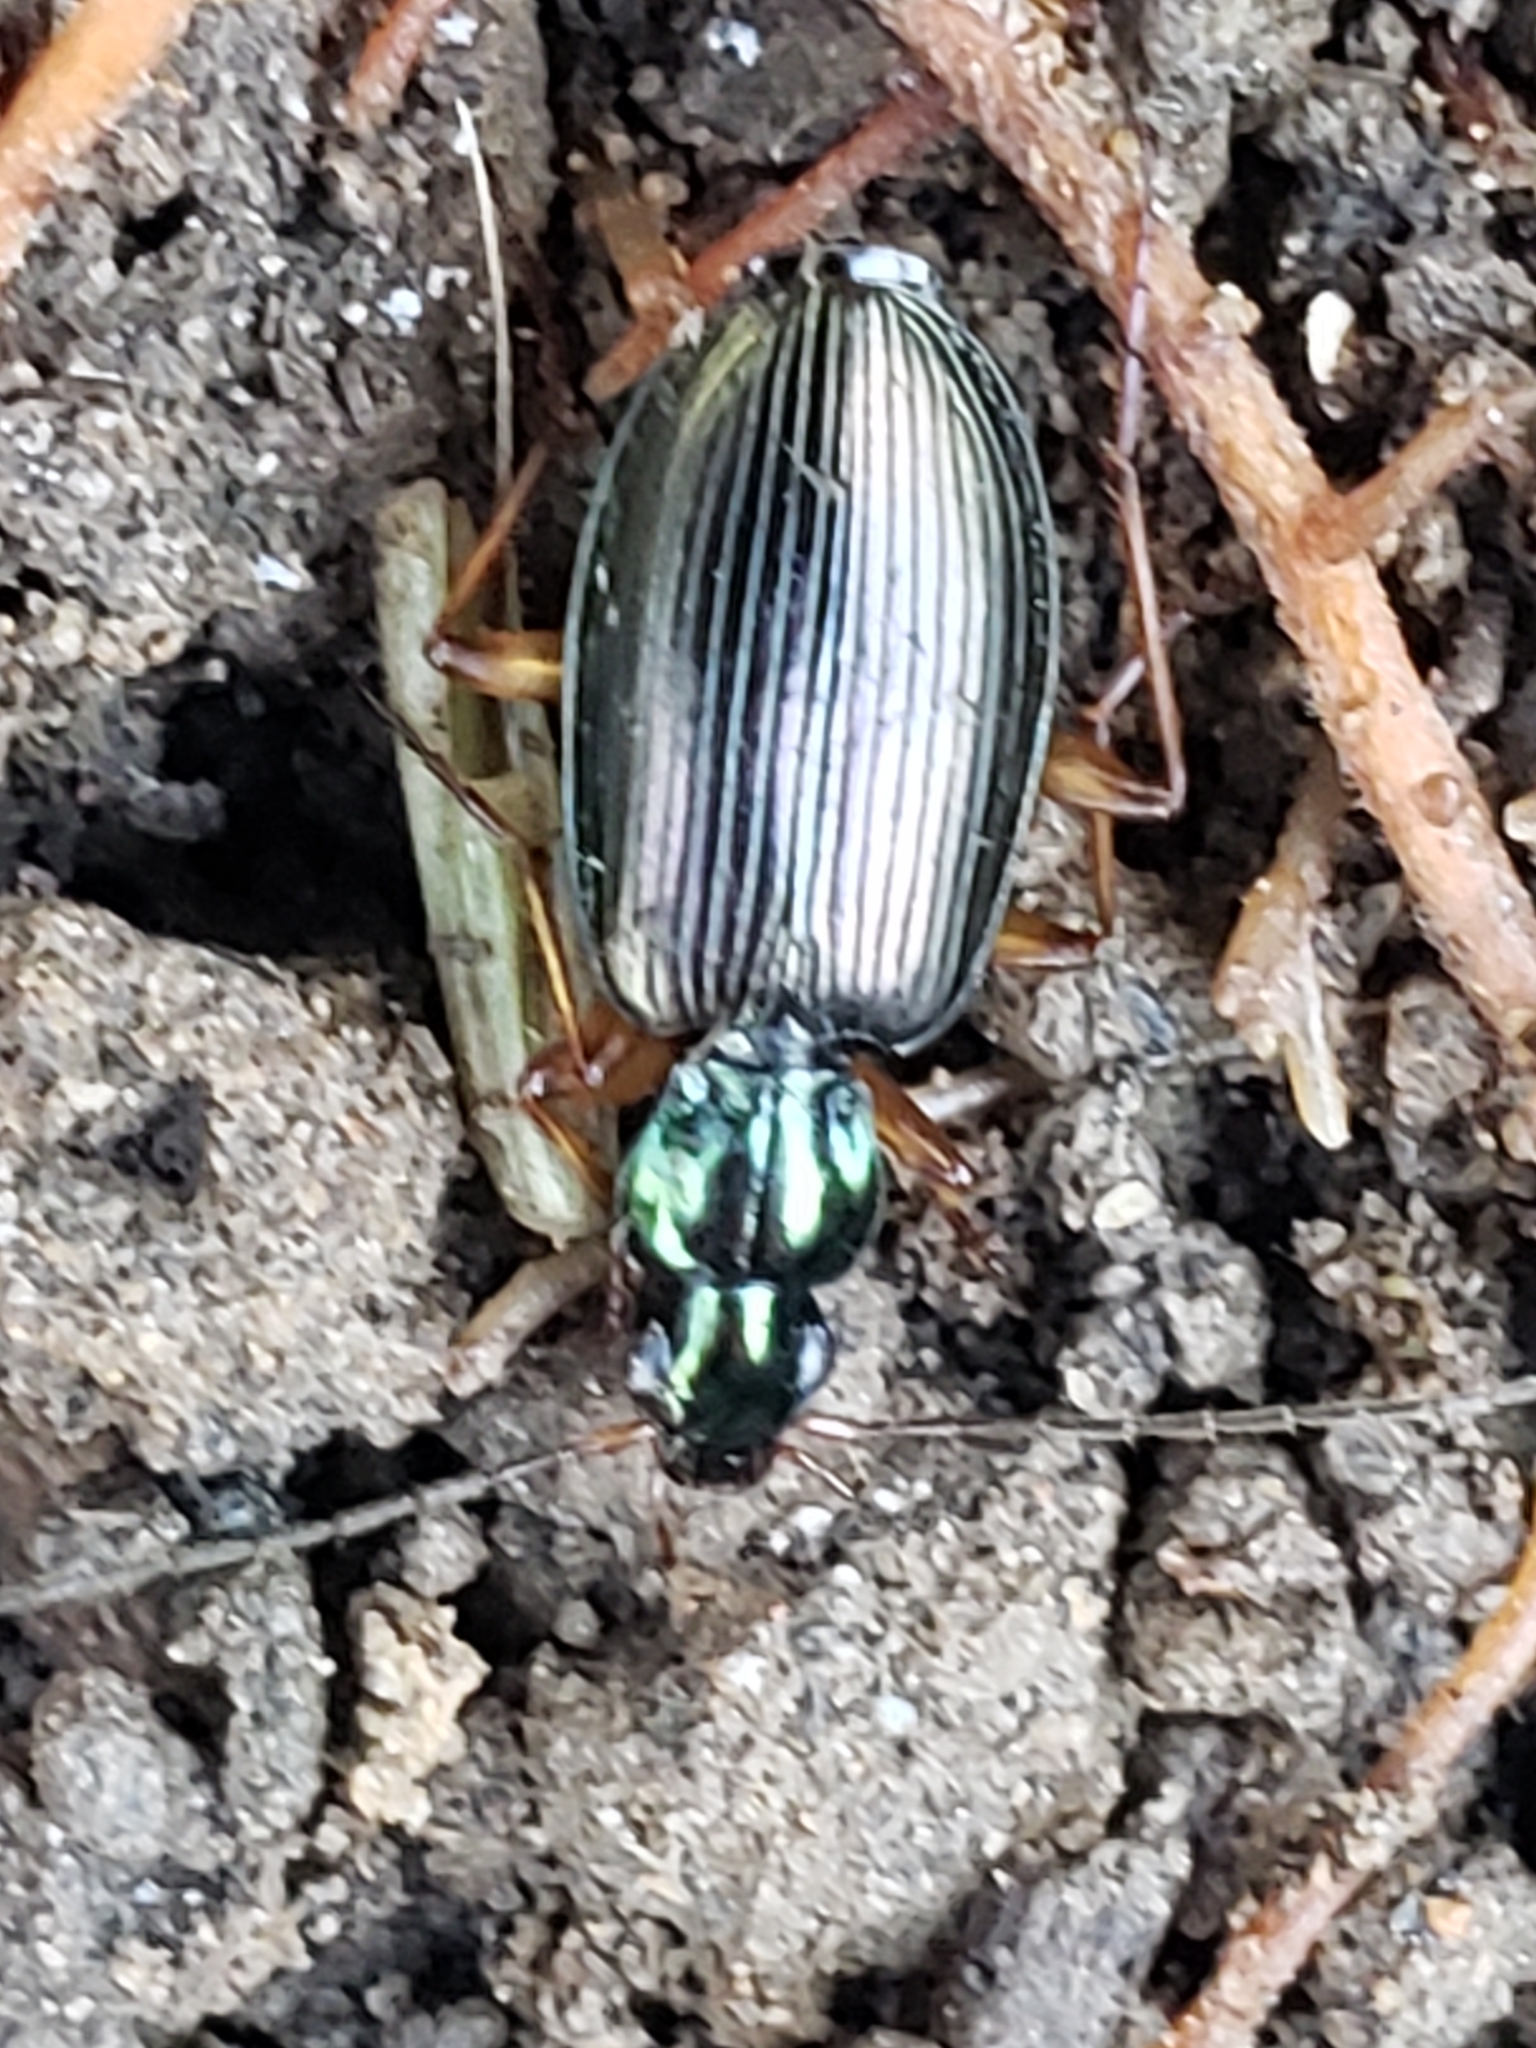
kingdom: Animalia
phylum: Arthropoda
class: Insecta
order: Coleoptera
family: Carabidae
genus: Agonum
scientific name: Agonum extensicolle
